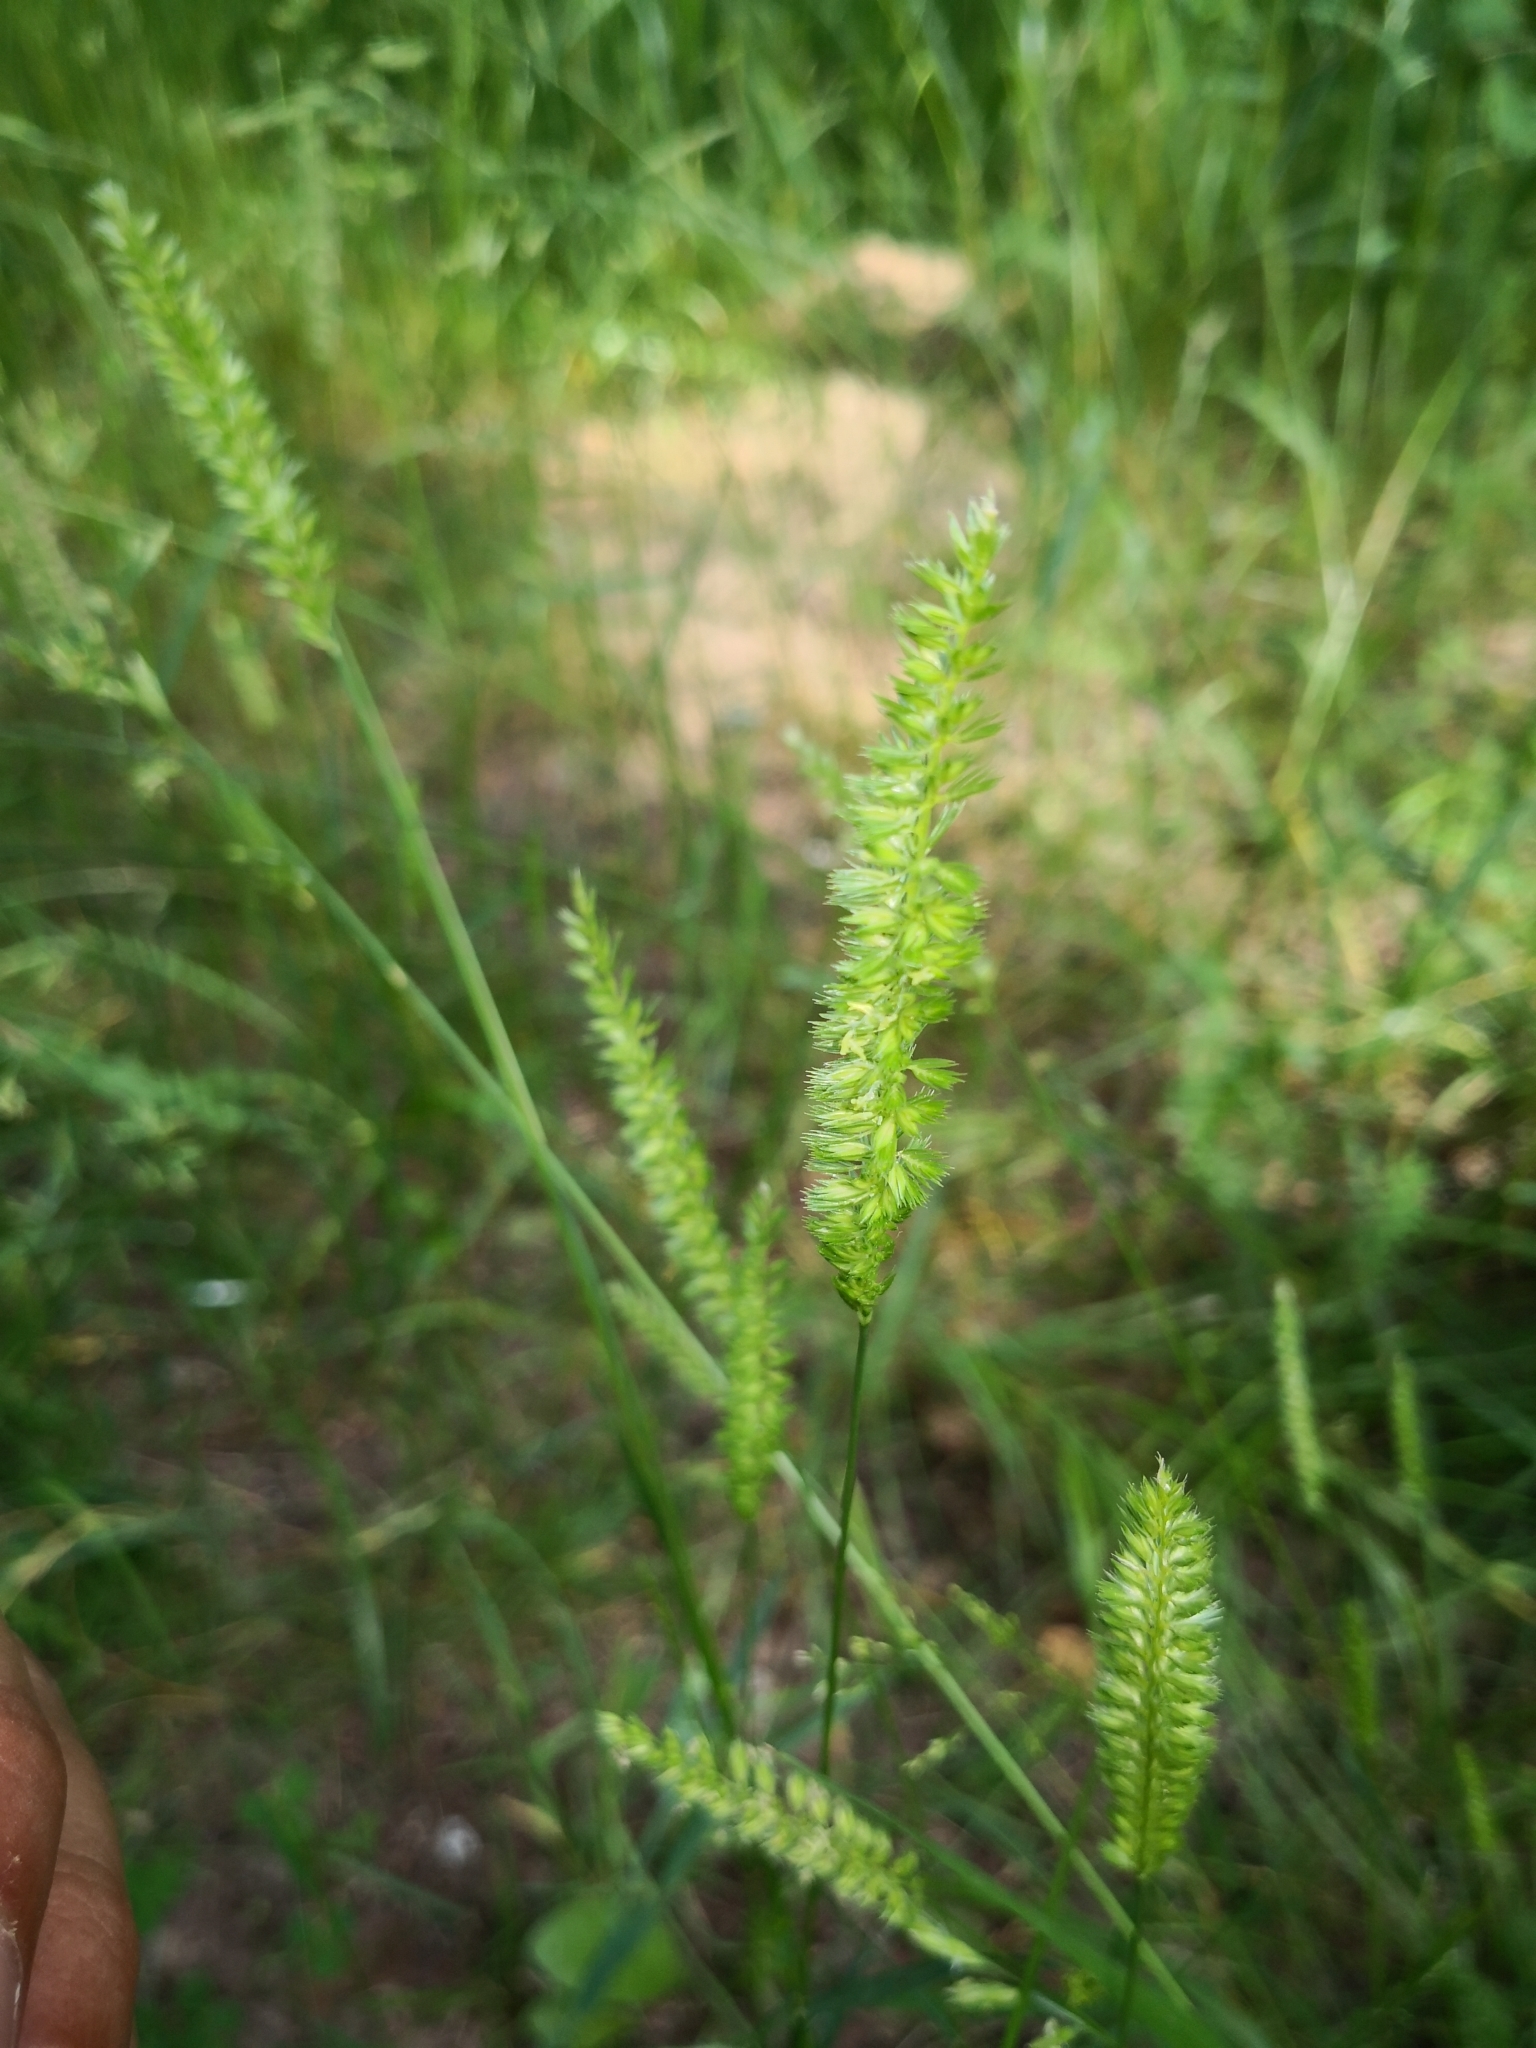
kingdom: Plantae
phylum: Tracheophyta
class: Liliopsida
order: Poales
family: Poaceae
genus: Cynosurus
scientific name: Cynosurus cristatus
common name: Crested dog's-tail
